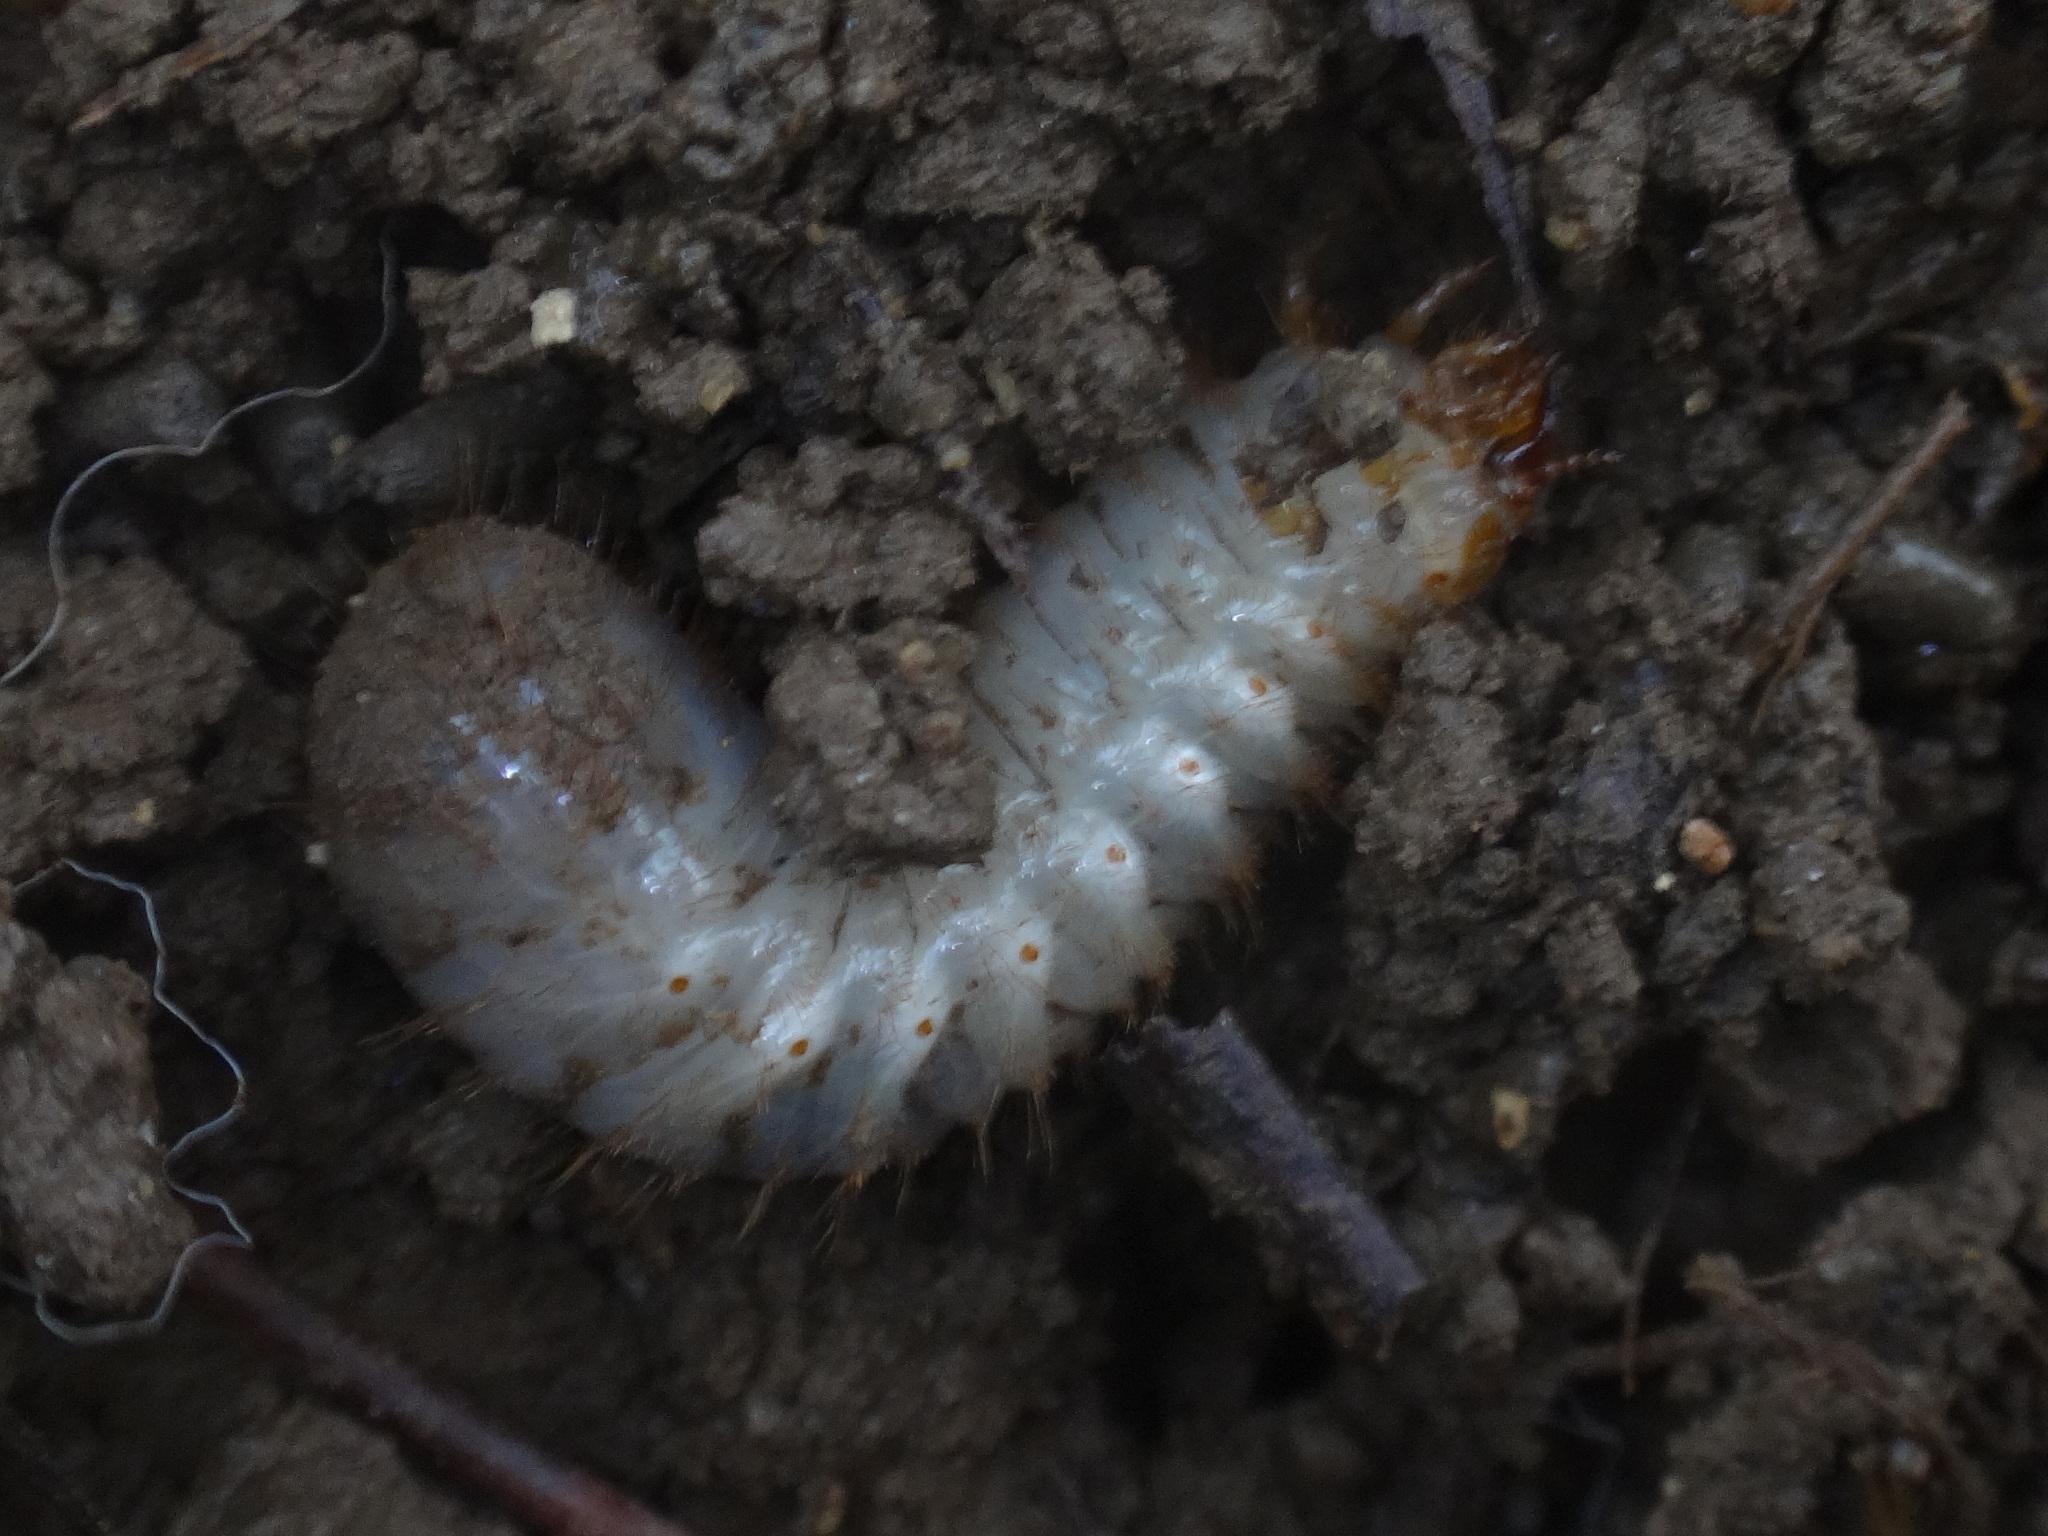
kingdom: Animalia
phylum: Arthropoda
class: Insecta
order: Coleoptera
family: Scarabaeidae
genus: Cetonia
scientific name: Cetonia aurata
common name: Rose chafer
